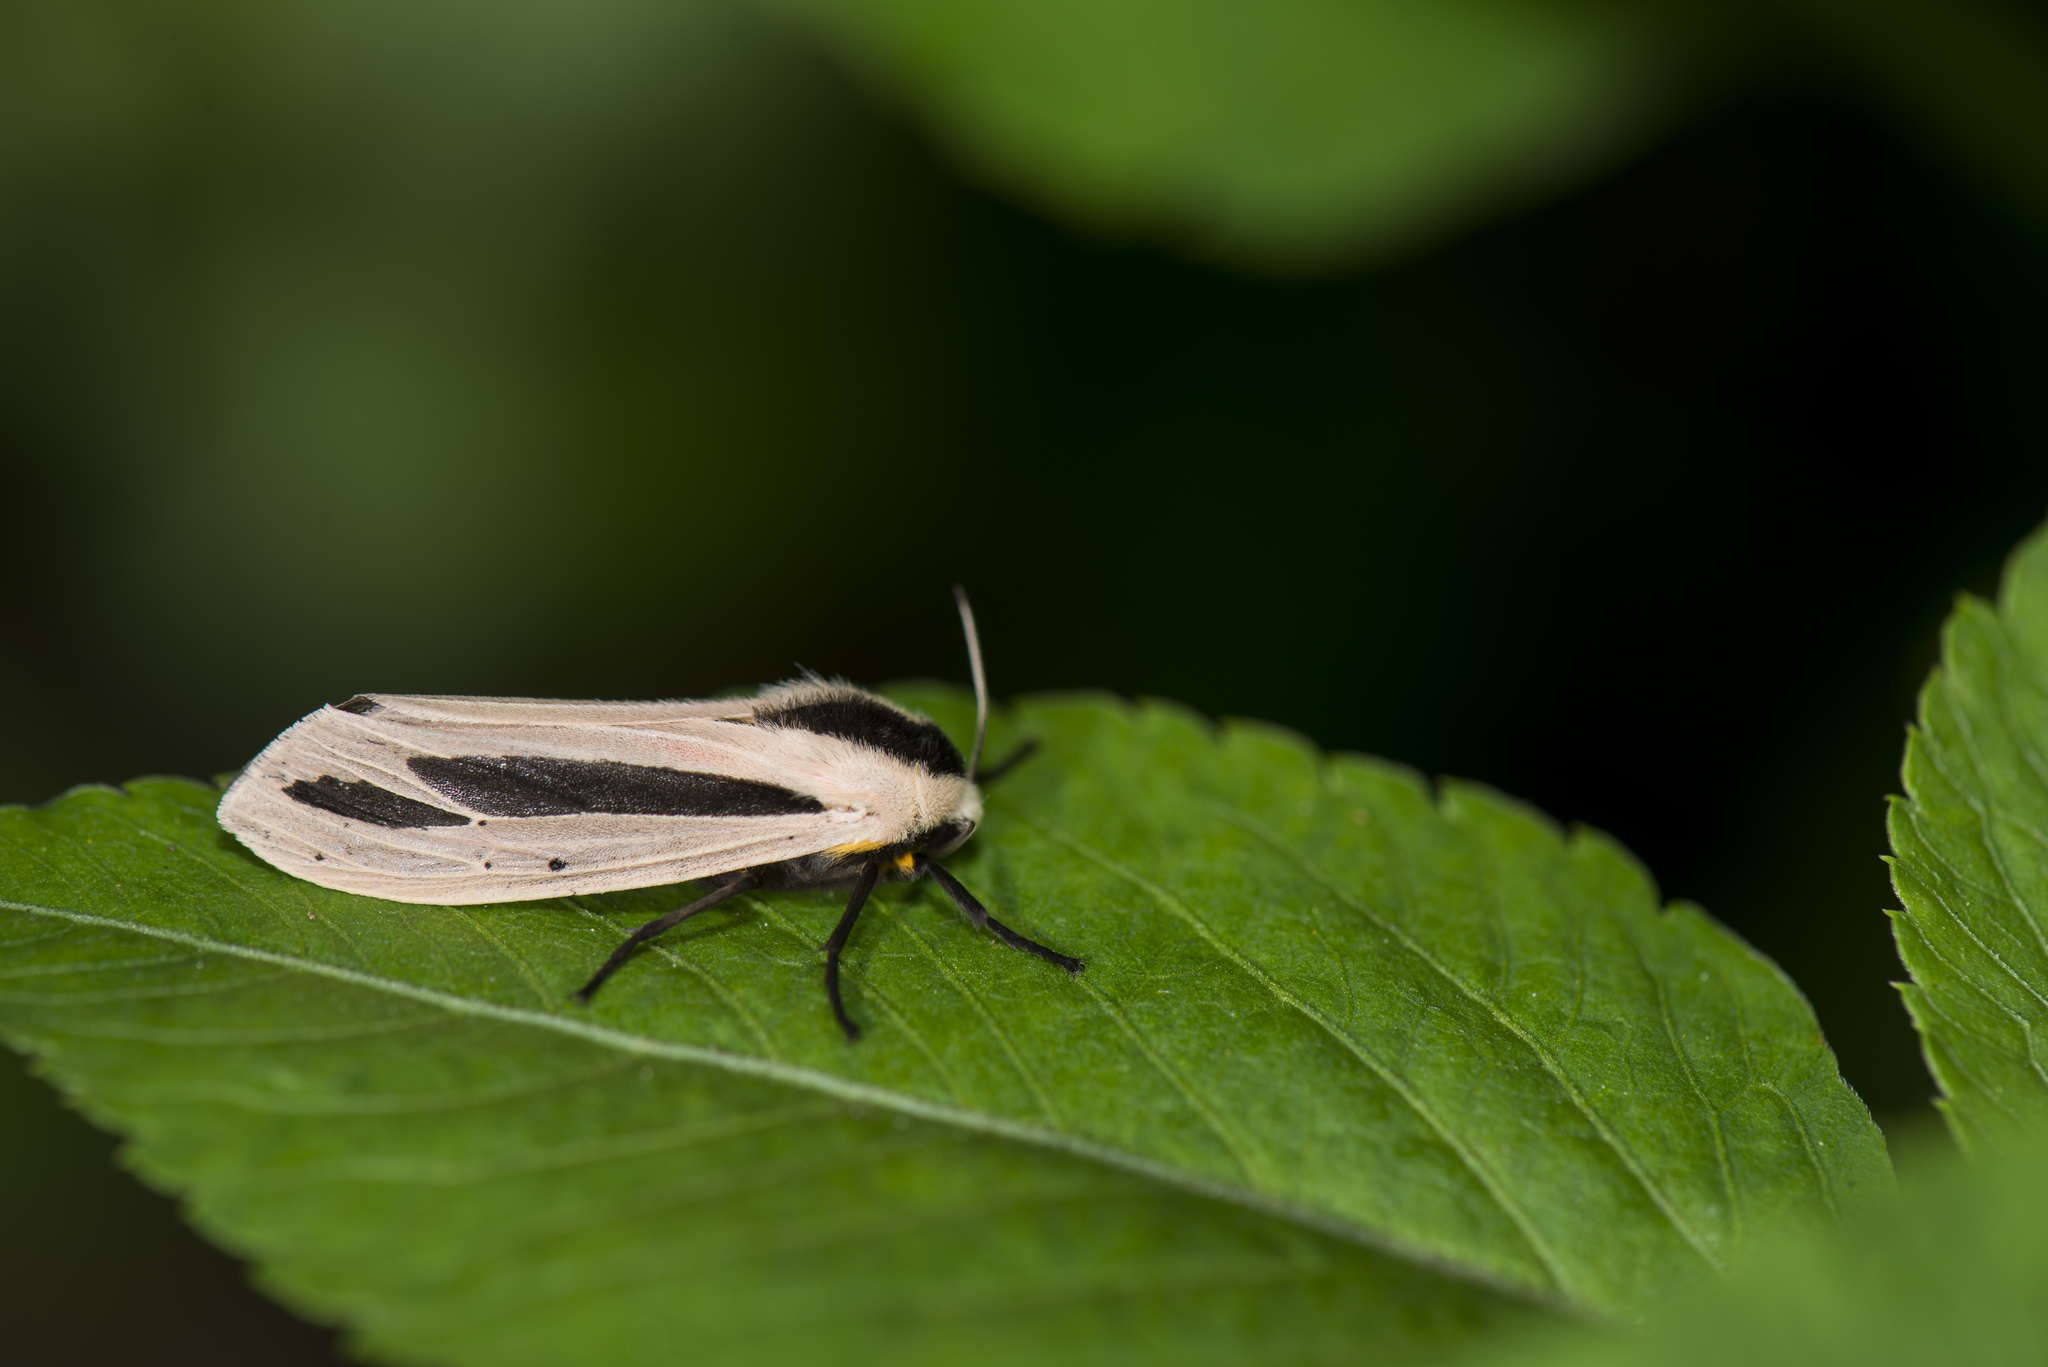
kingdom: Animalia
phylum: Arthropoda
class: Insecta
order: Lepidoptera
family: Erebidae
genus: Creatonotos
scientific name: Creatonotos gangis
